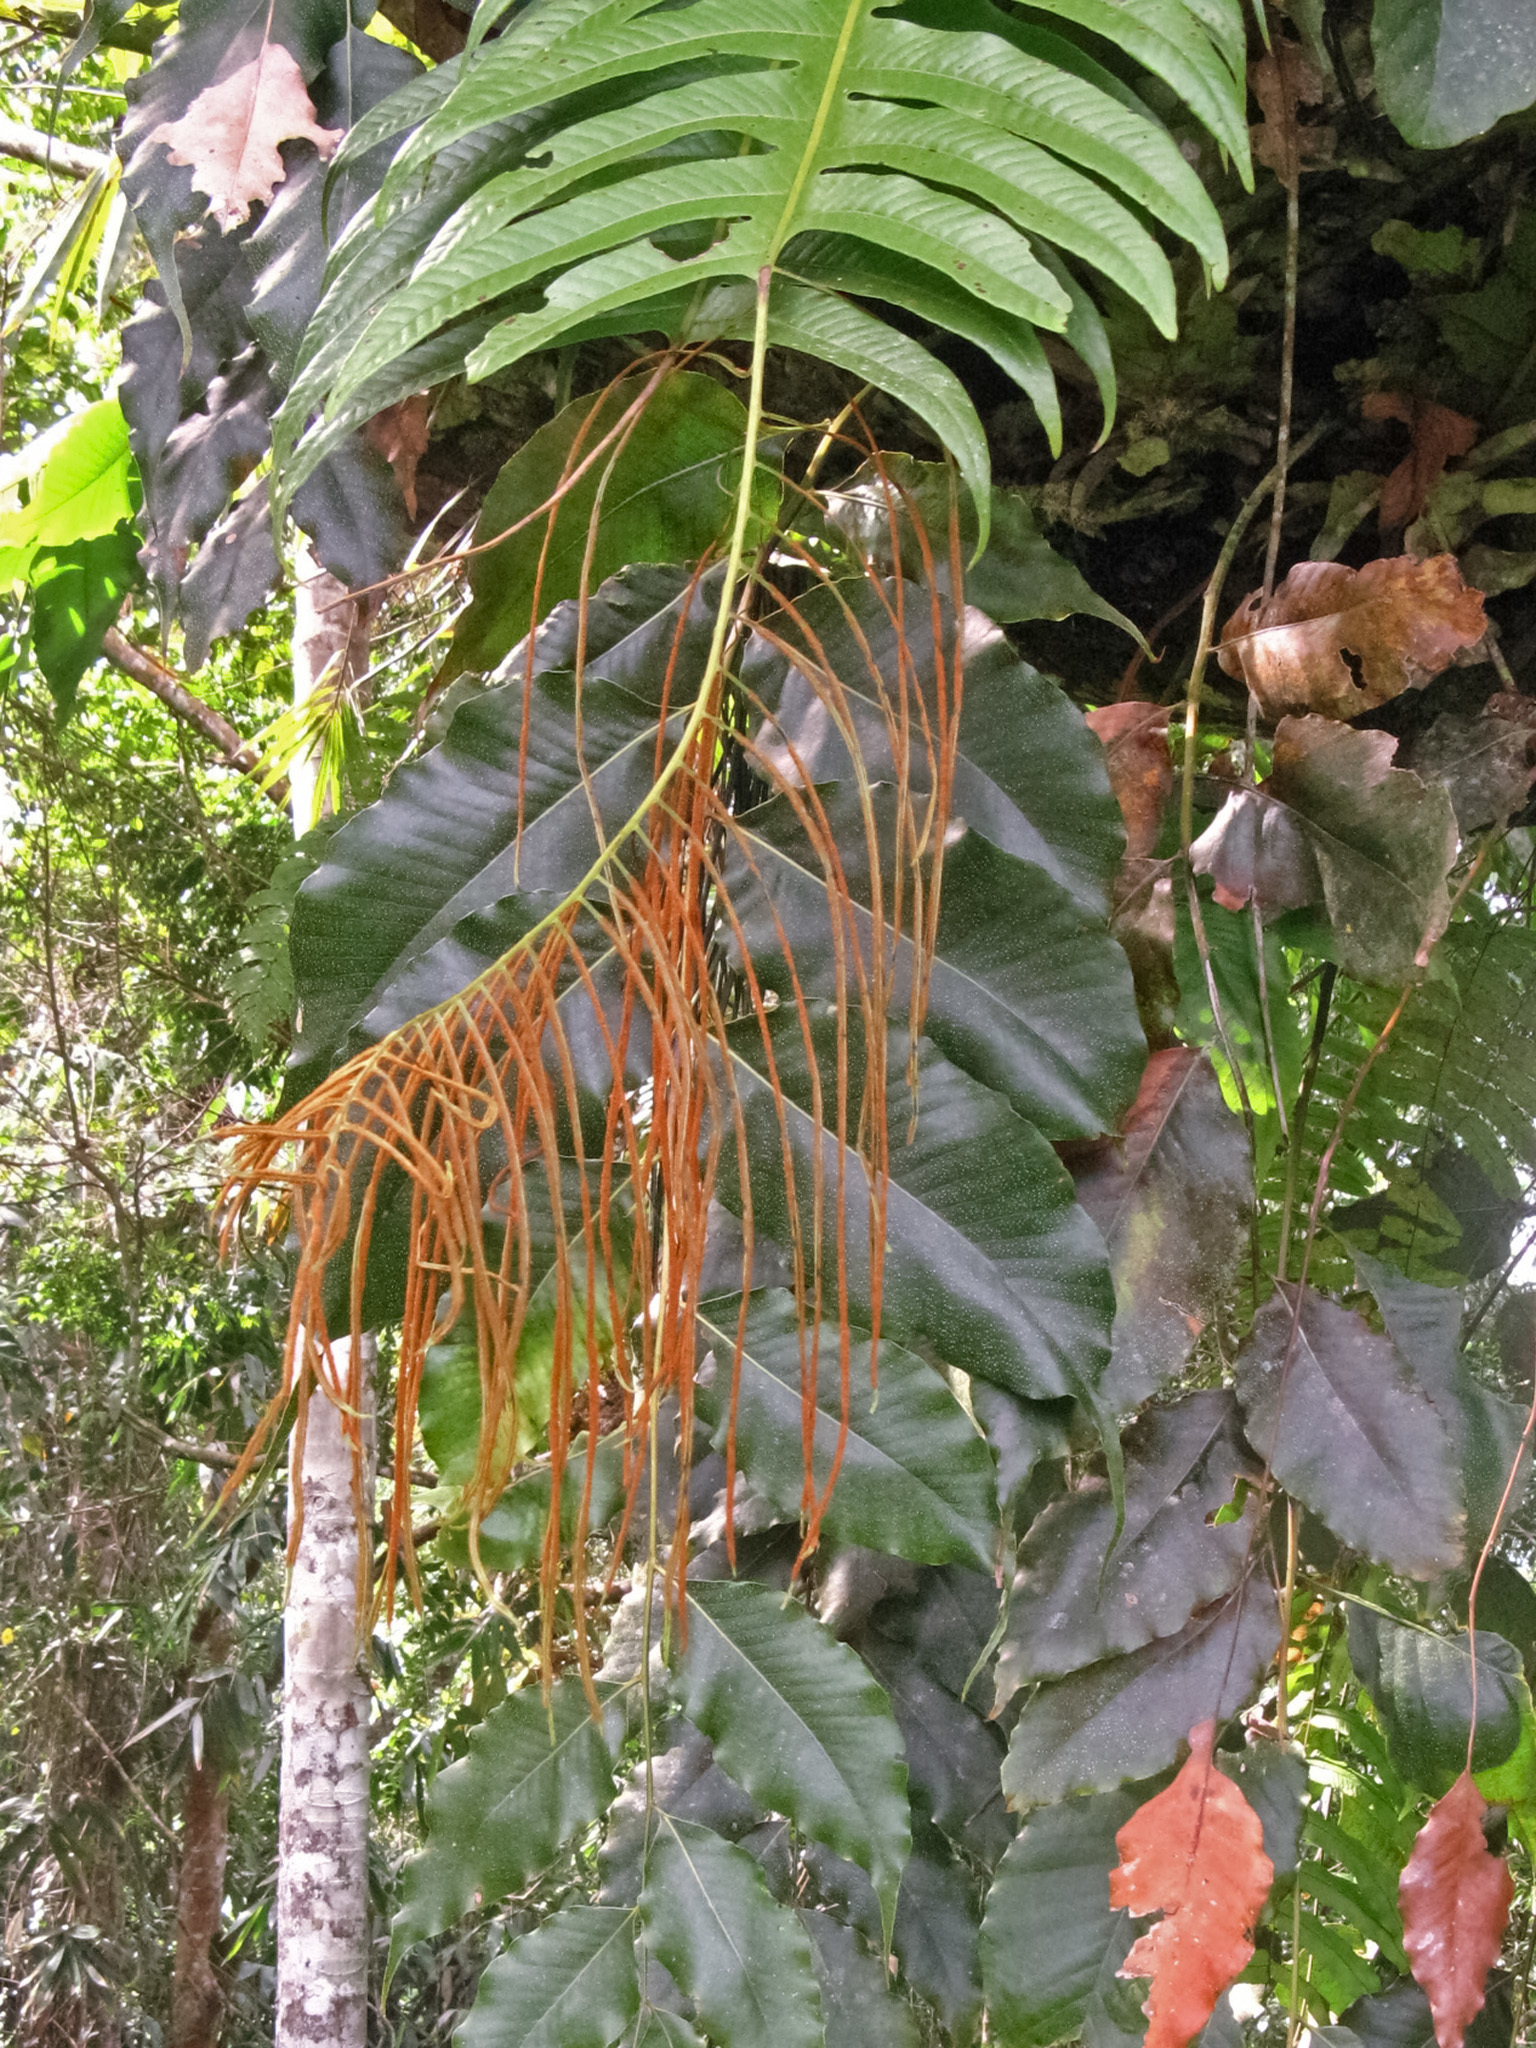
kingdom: Plantae
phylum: Tracheophyta
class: Polypodiopsida
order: Polypodiales
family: Polypodiaceae
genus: Drynaria
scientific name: Drynaria drynarioides
